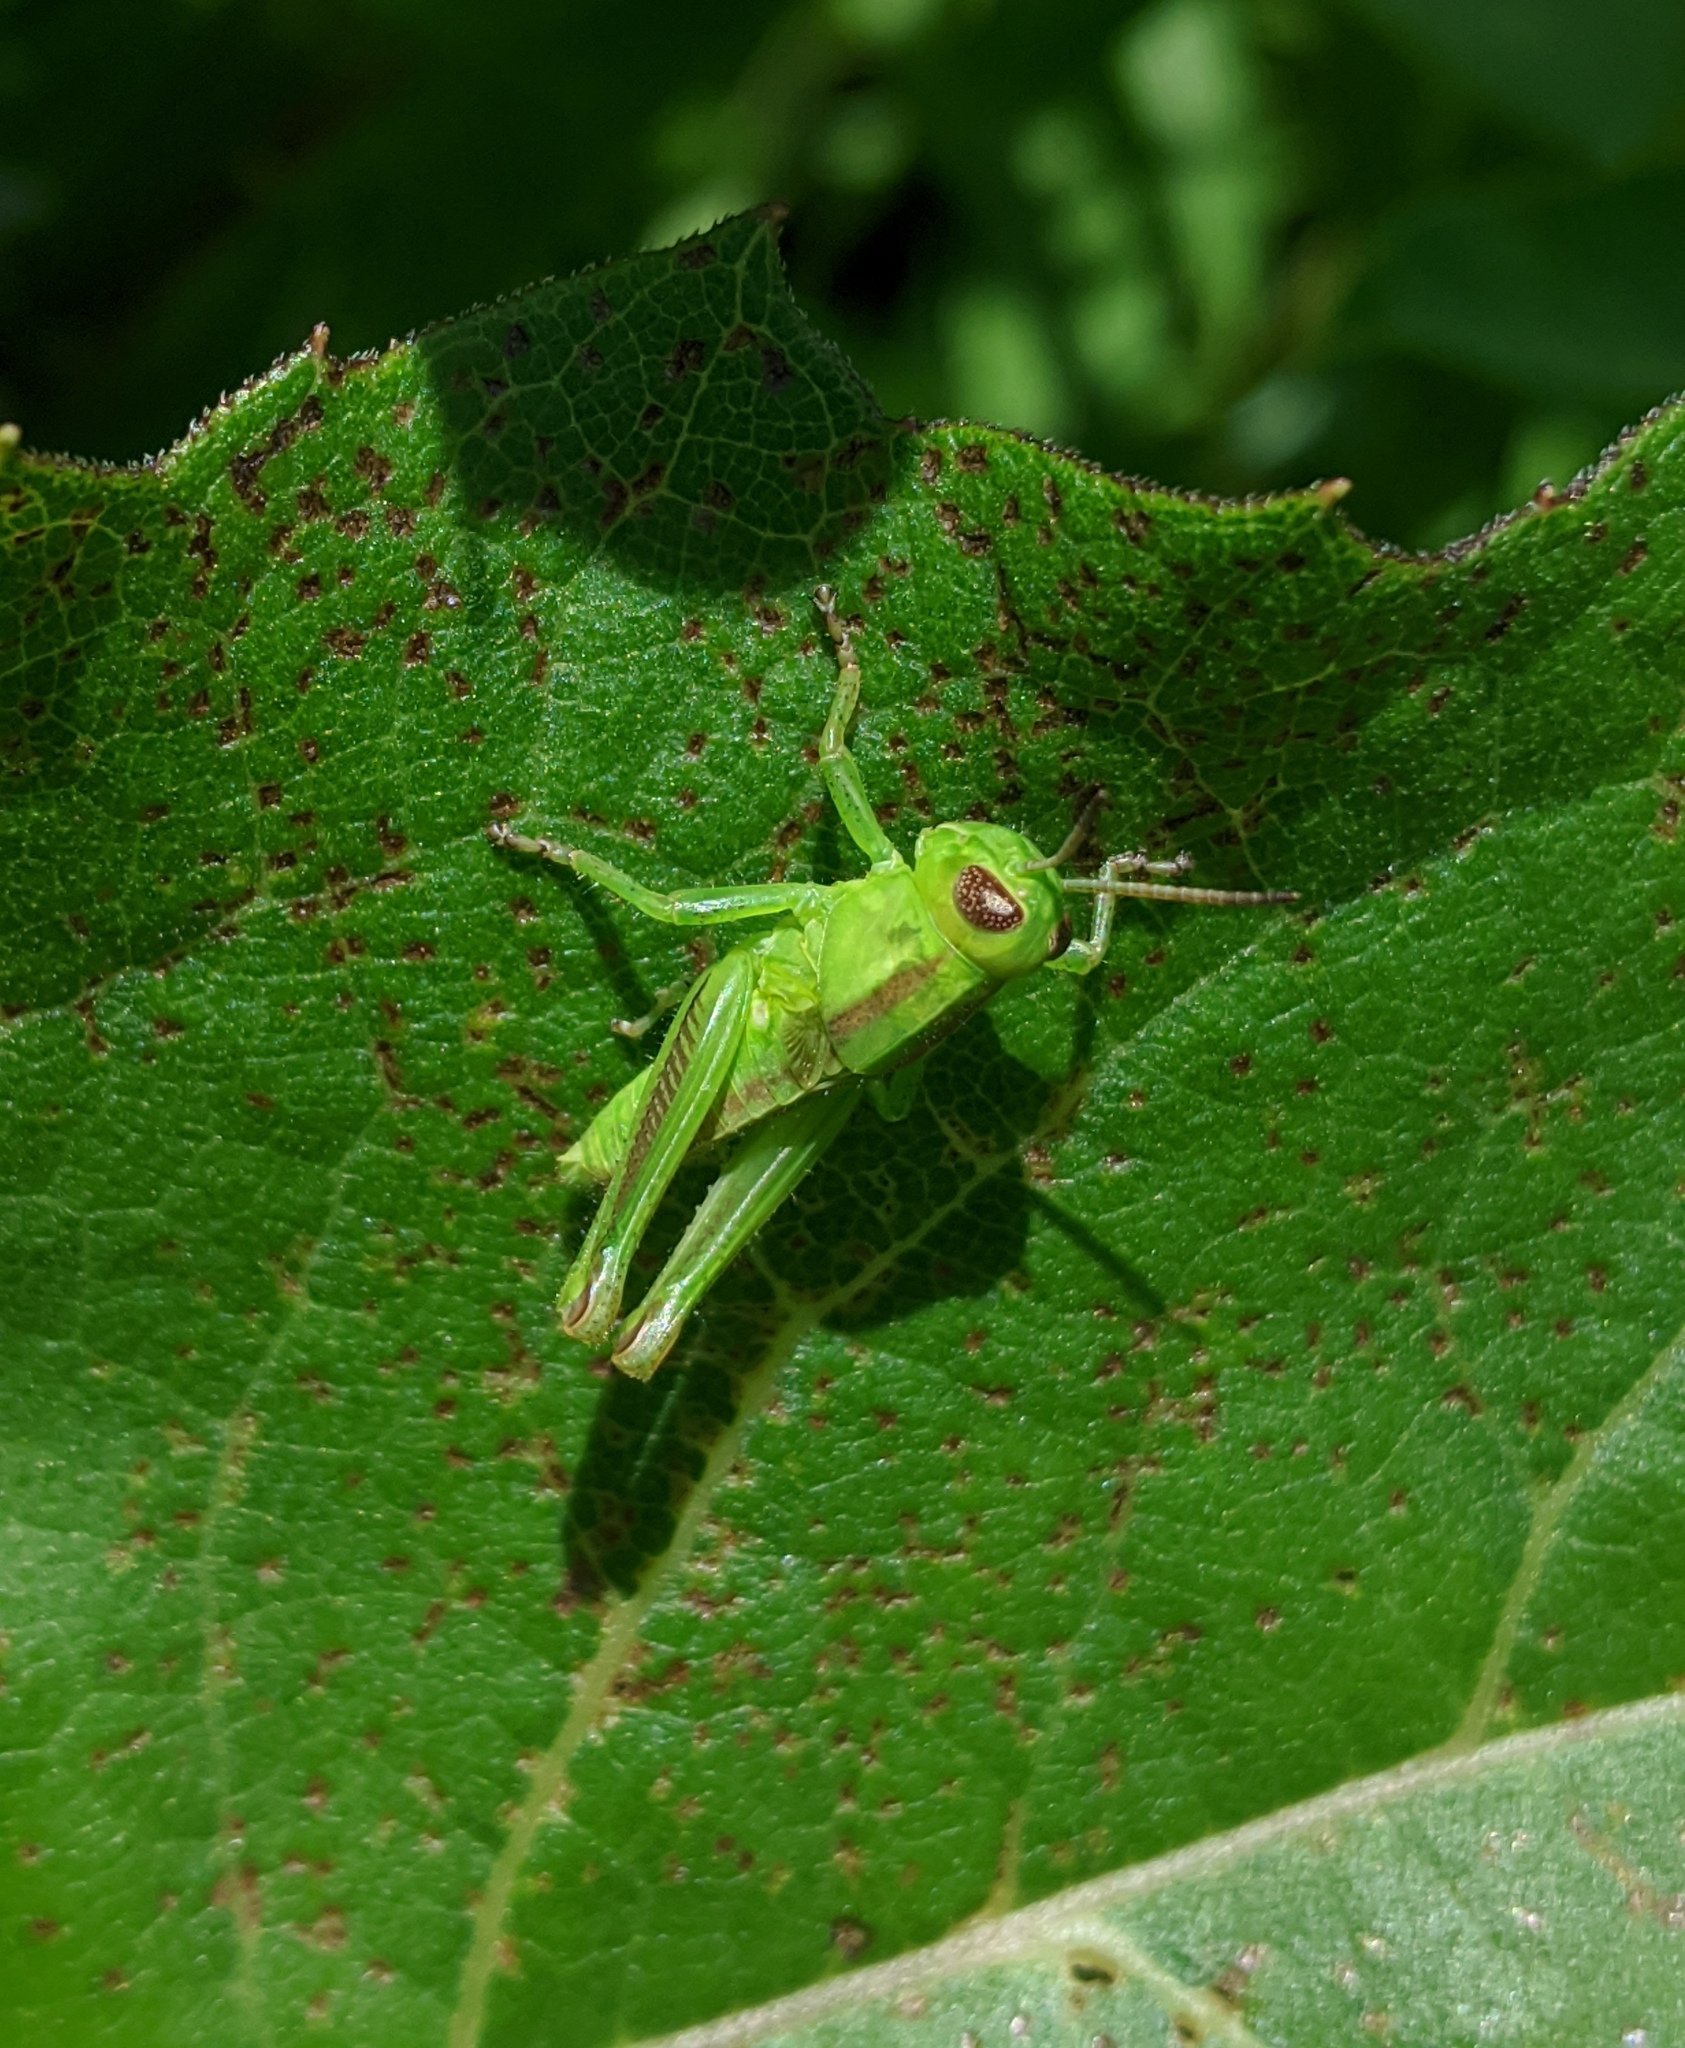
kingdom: Animalia
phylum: Arthropoda
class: Insecta
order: Orthoptera
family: Acrididae
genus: Melanoplus
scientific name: Melanoplus bivittatus
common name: Two-striped grasshopper
